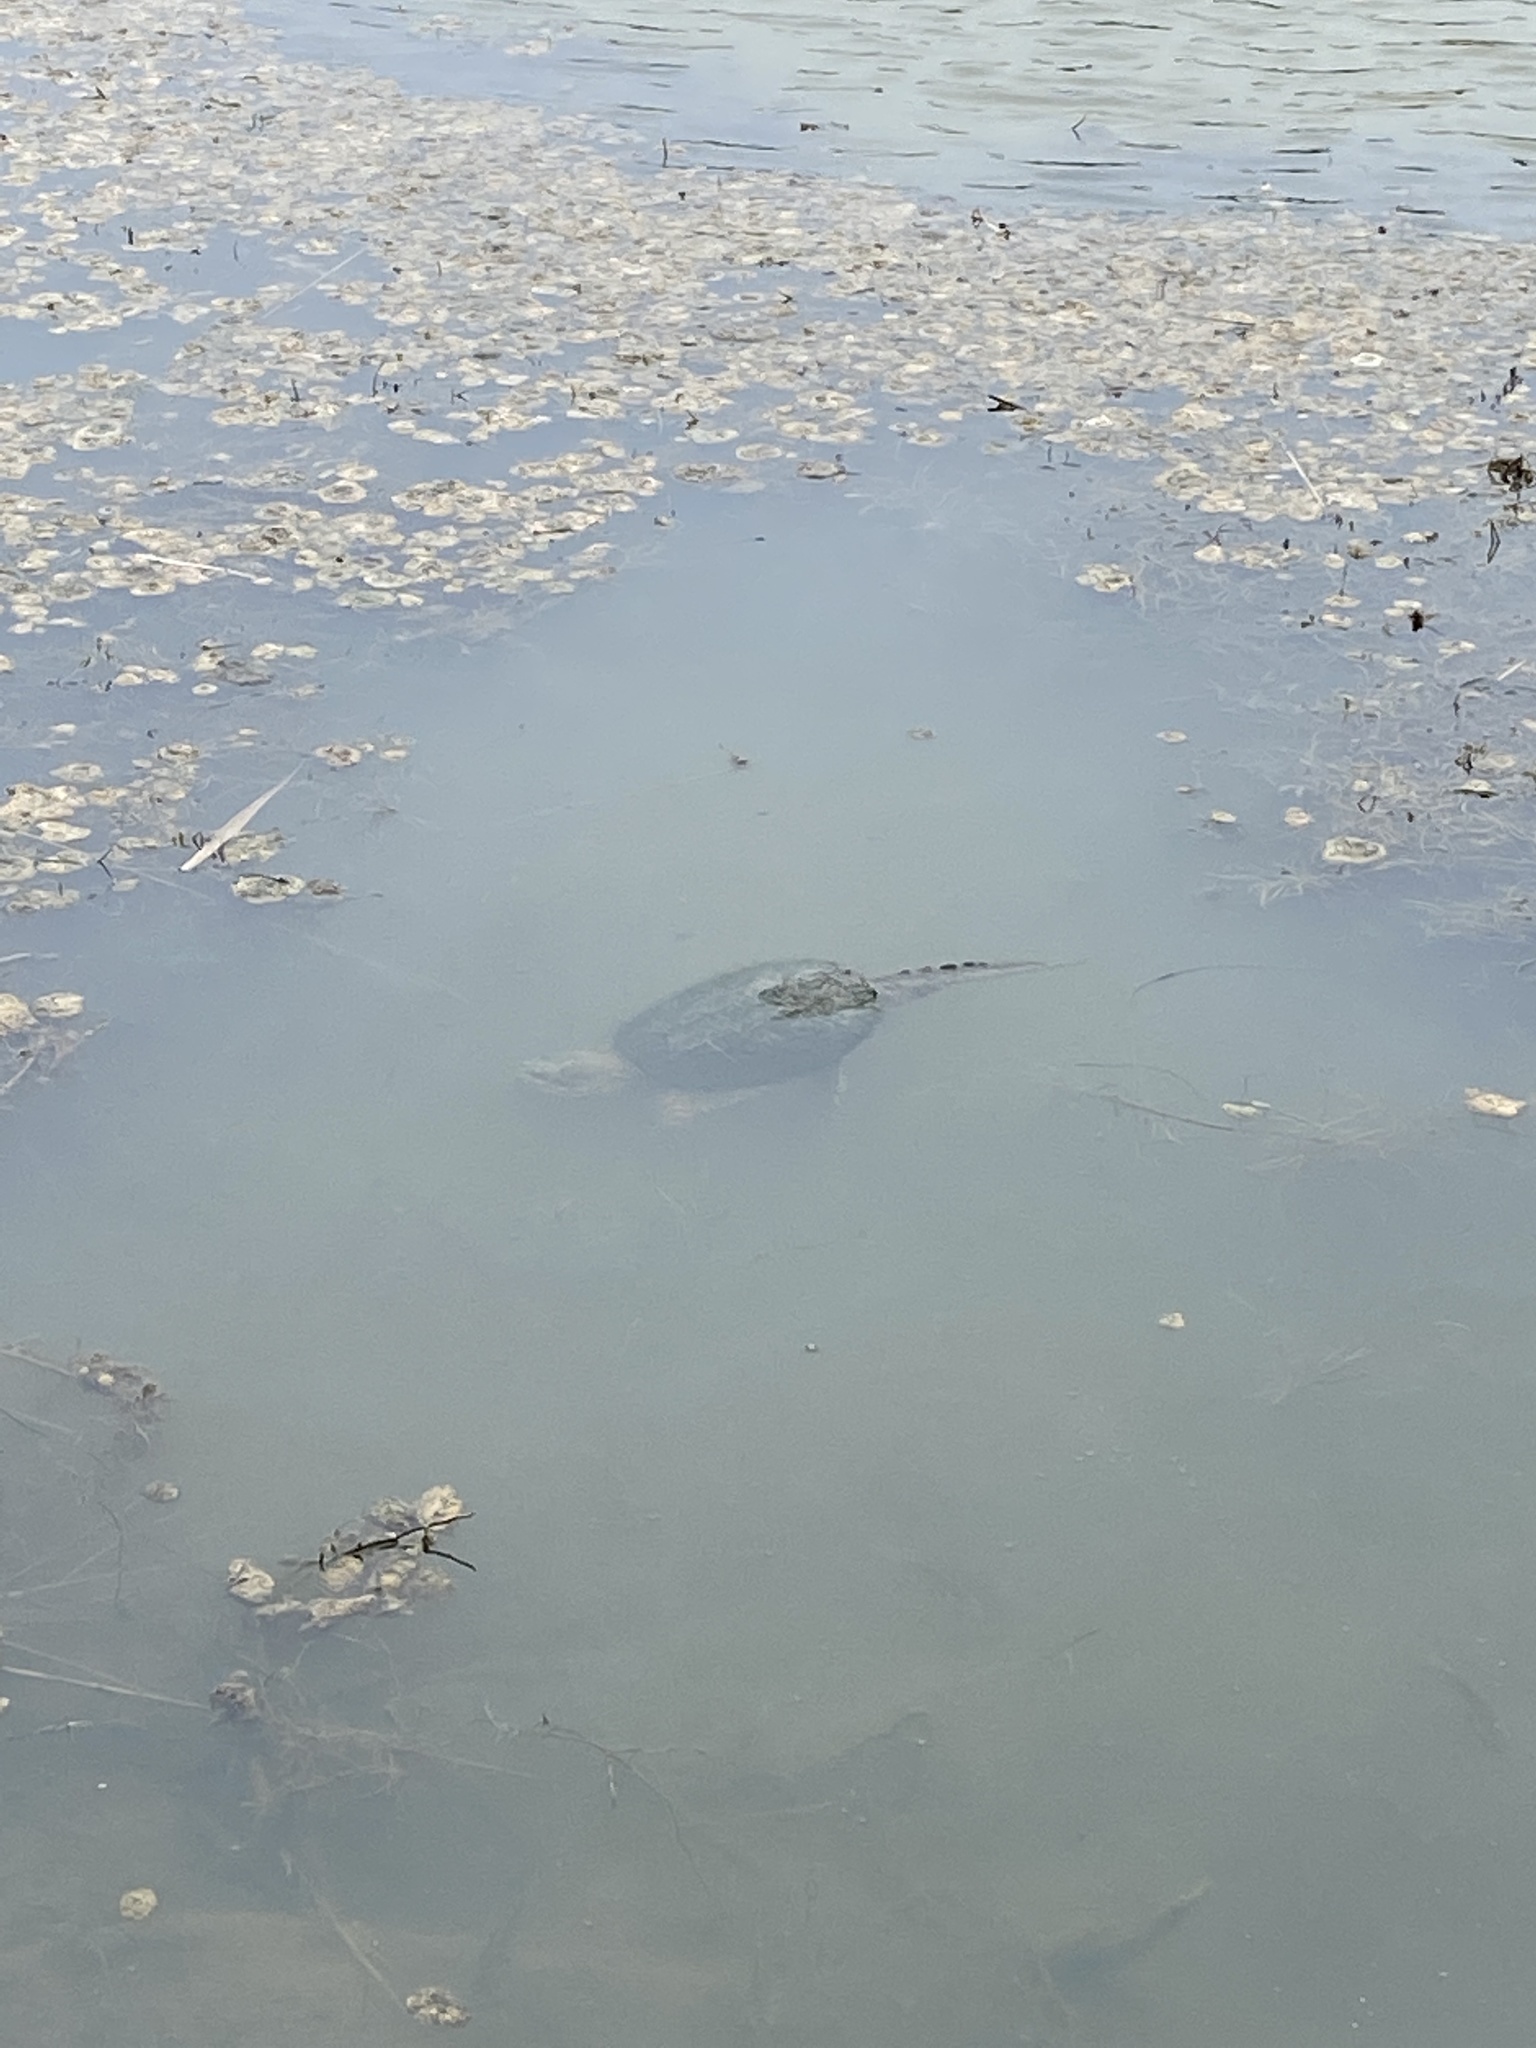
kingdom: Animalia
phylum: Chordata
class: Testudines
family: Chelydridae
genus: Chelydra
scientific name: Chelydra serpentina
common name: Common snapping turtle
